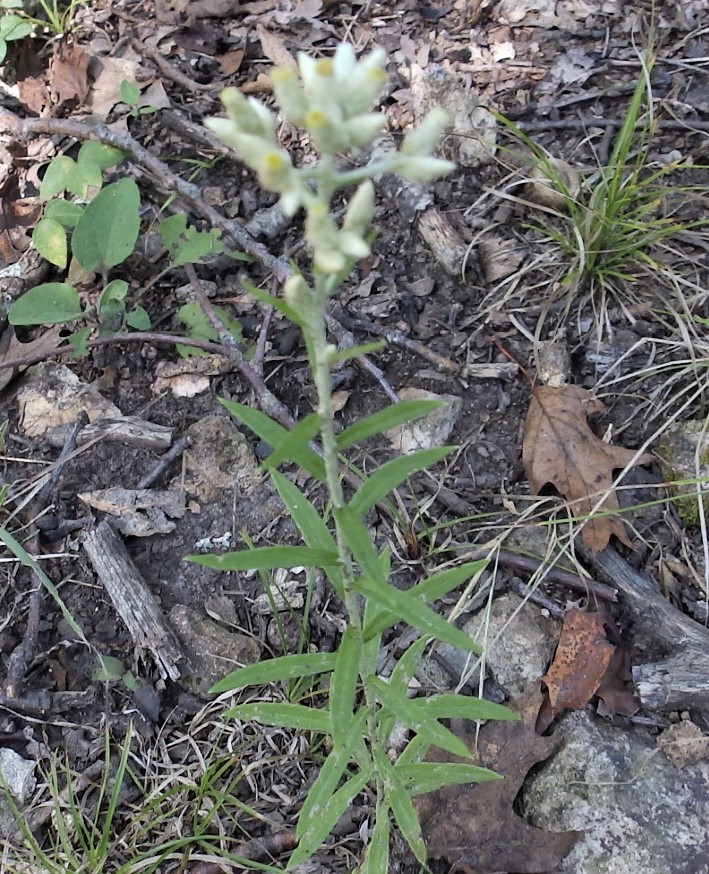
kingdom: Plantae
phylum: Tracheophyta
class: Magnoliopsida
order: Asterales
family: Asteraceae
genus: Pseudognaphalium
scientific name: Pseudognaphalium obtusifolium
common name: Eastern rabbit-tobacco
